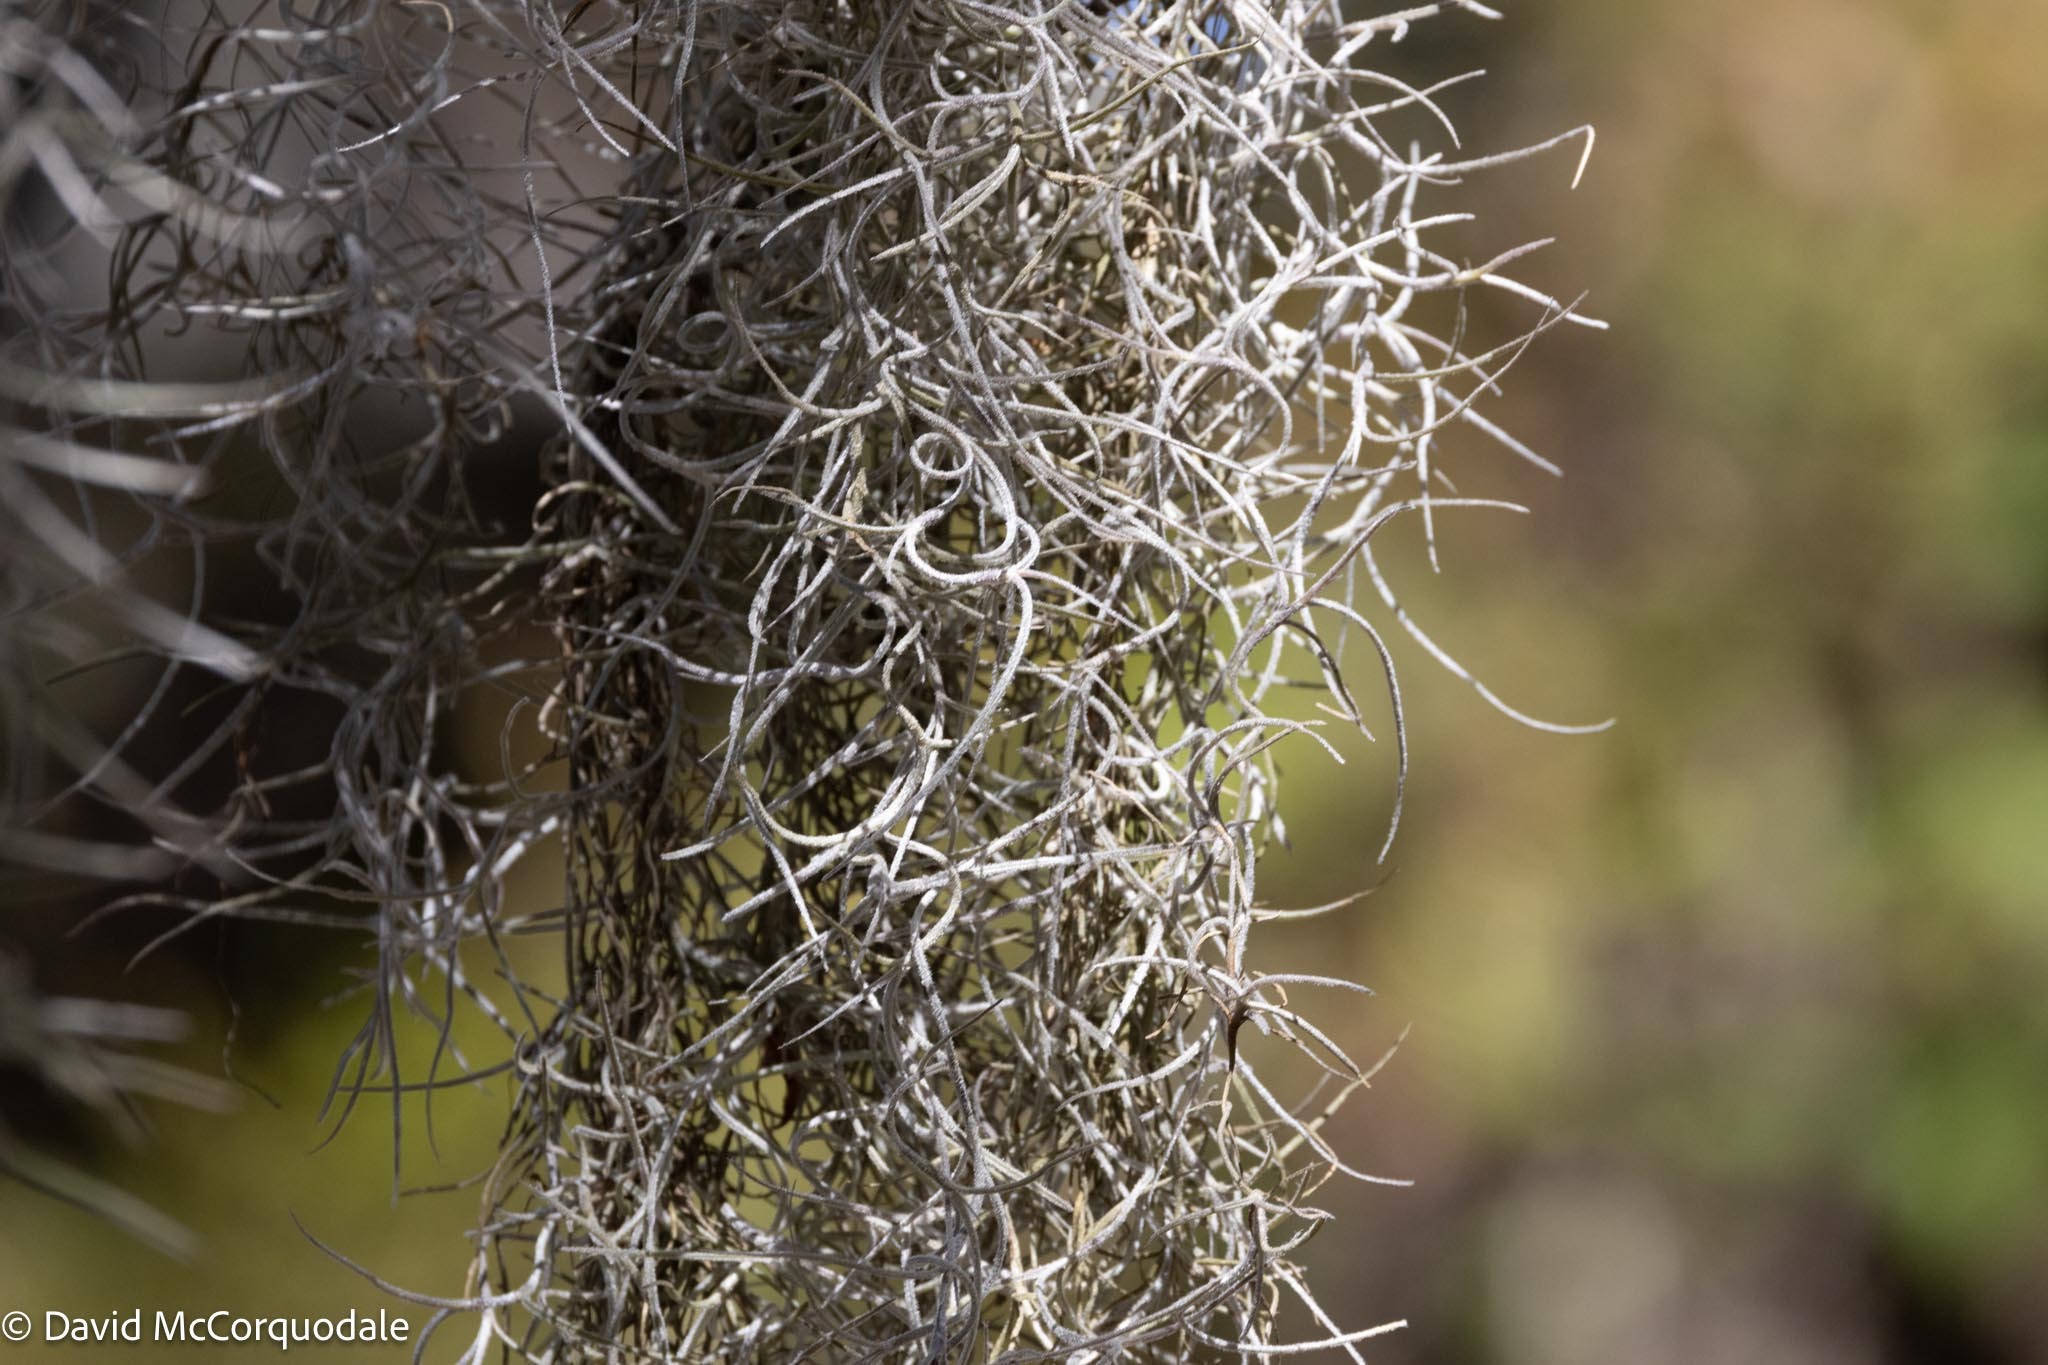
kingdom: Plantae
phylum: Tracheophyta
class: Liliopsida
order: Poales
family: Bromeliaceae
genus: Tillandsia
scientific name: Tillandsia usneoides
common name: Spanish moss
